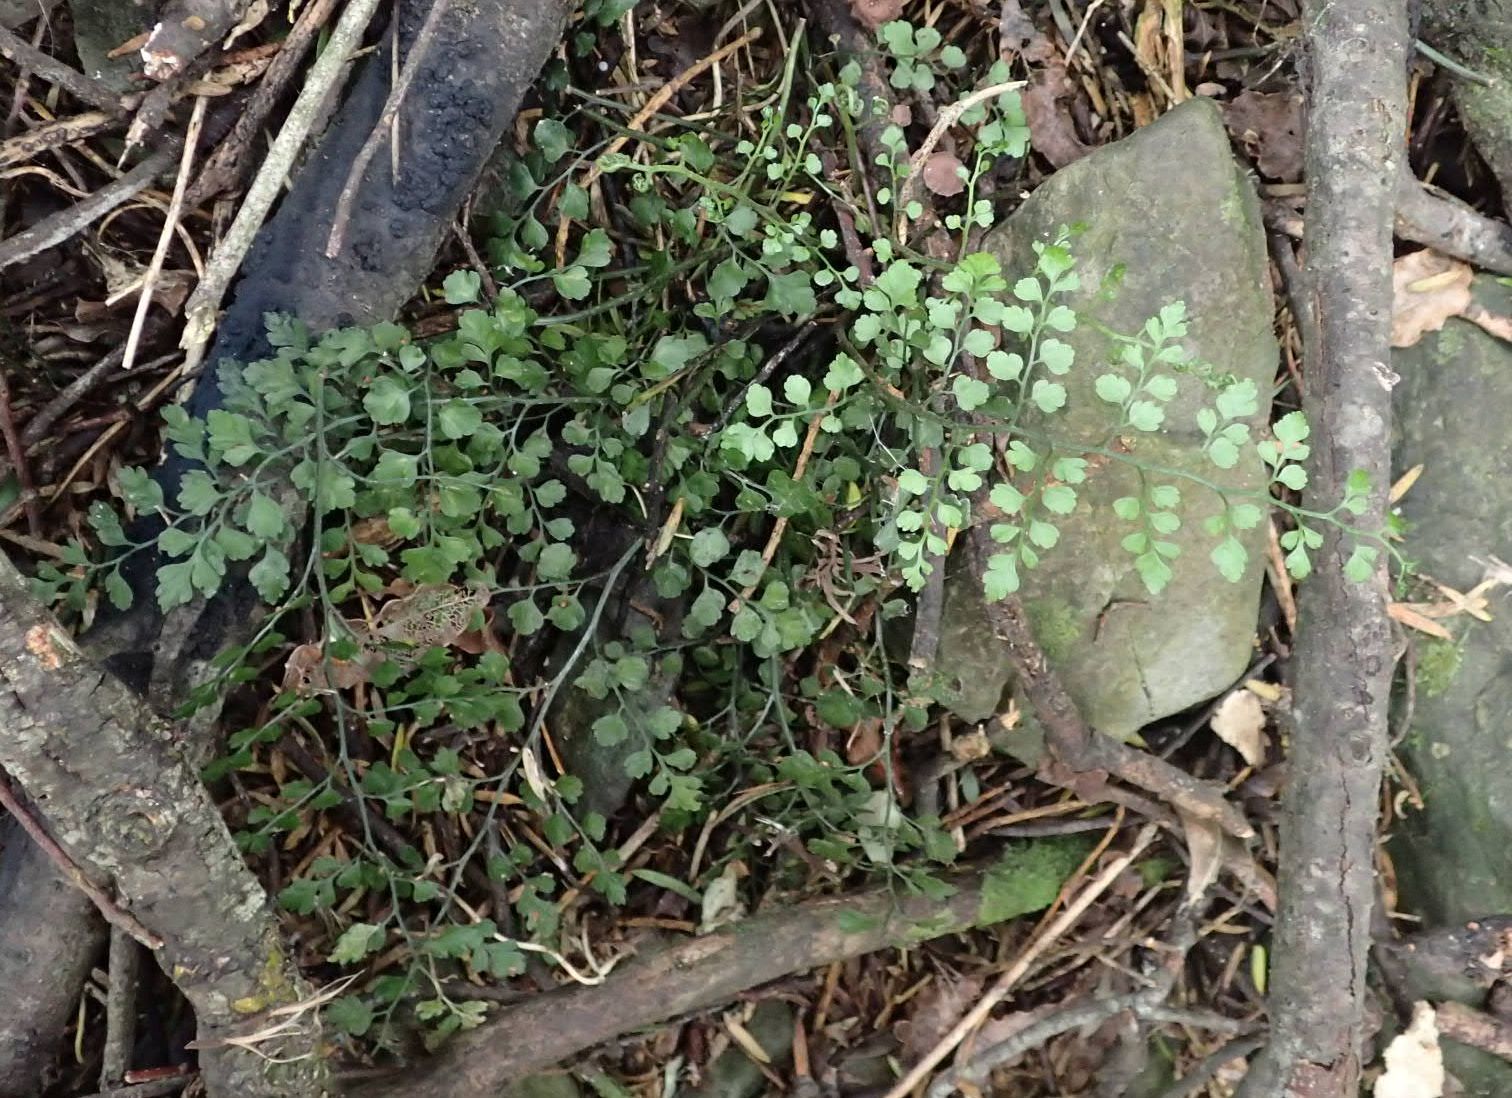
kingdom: Plantae
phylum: Tracheophyta
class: Polypodiopsida
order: Polypodiales
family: Aspleniaceae
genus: Asplenium
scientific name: Asplenium hookerianum
